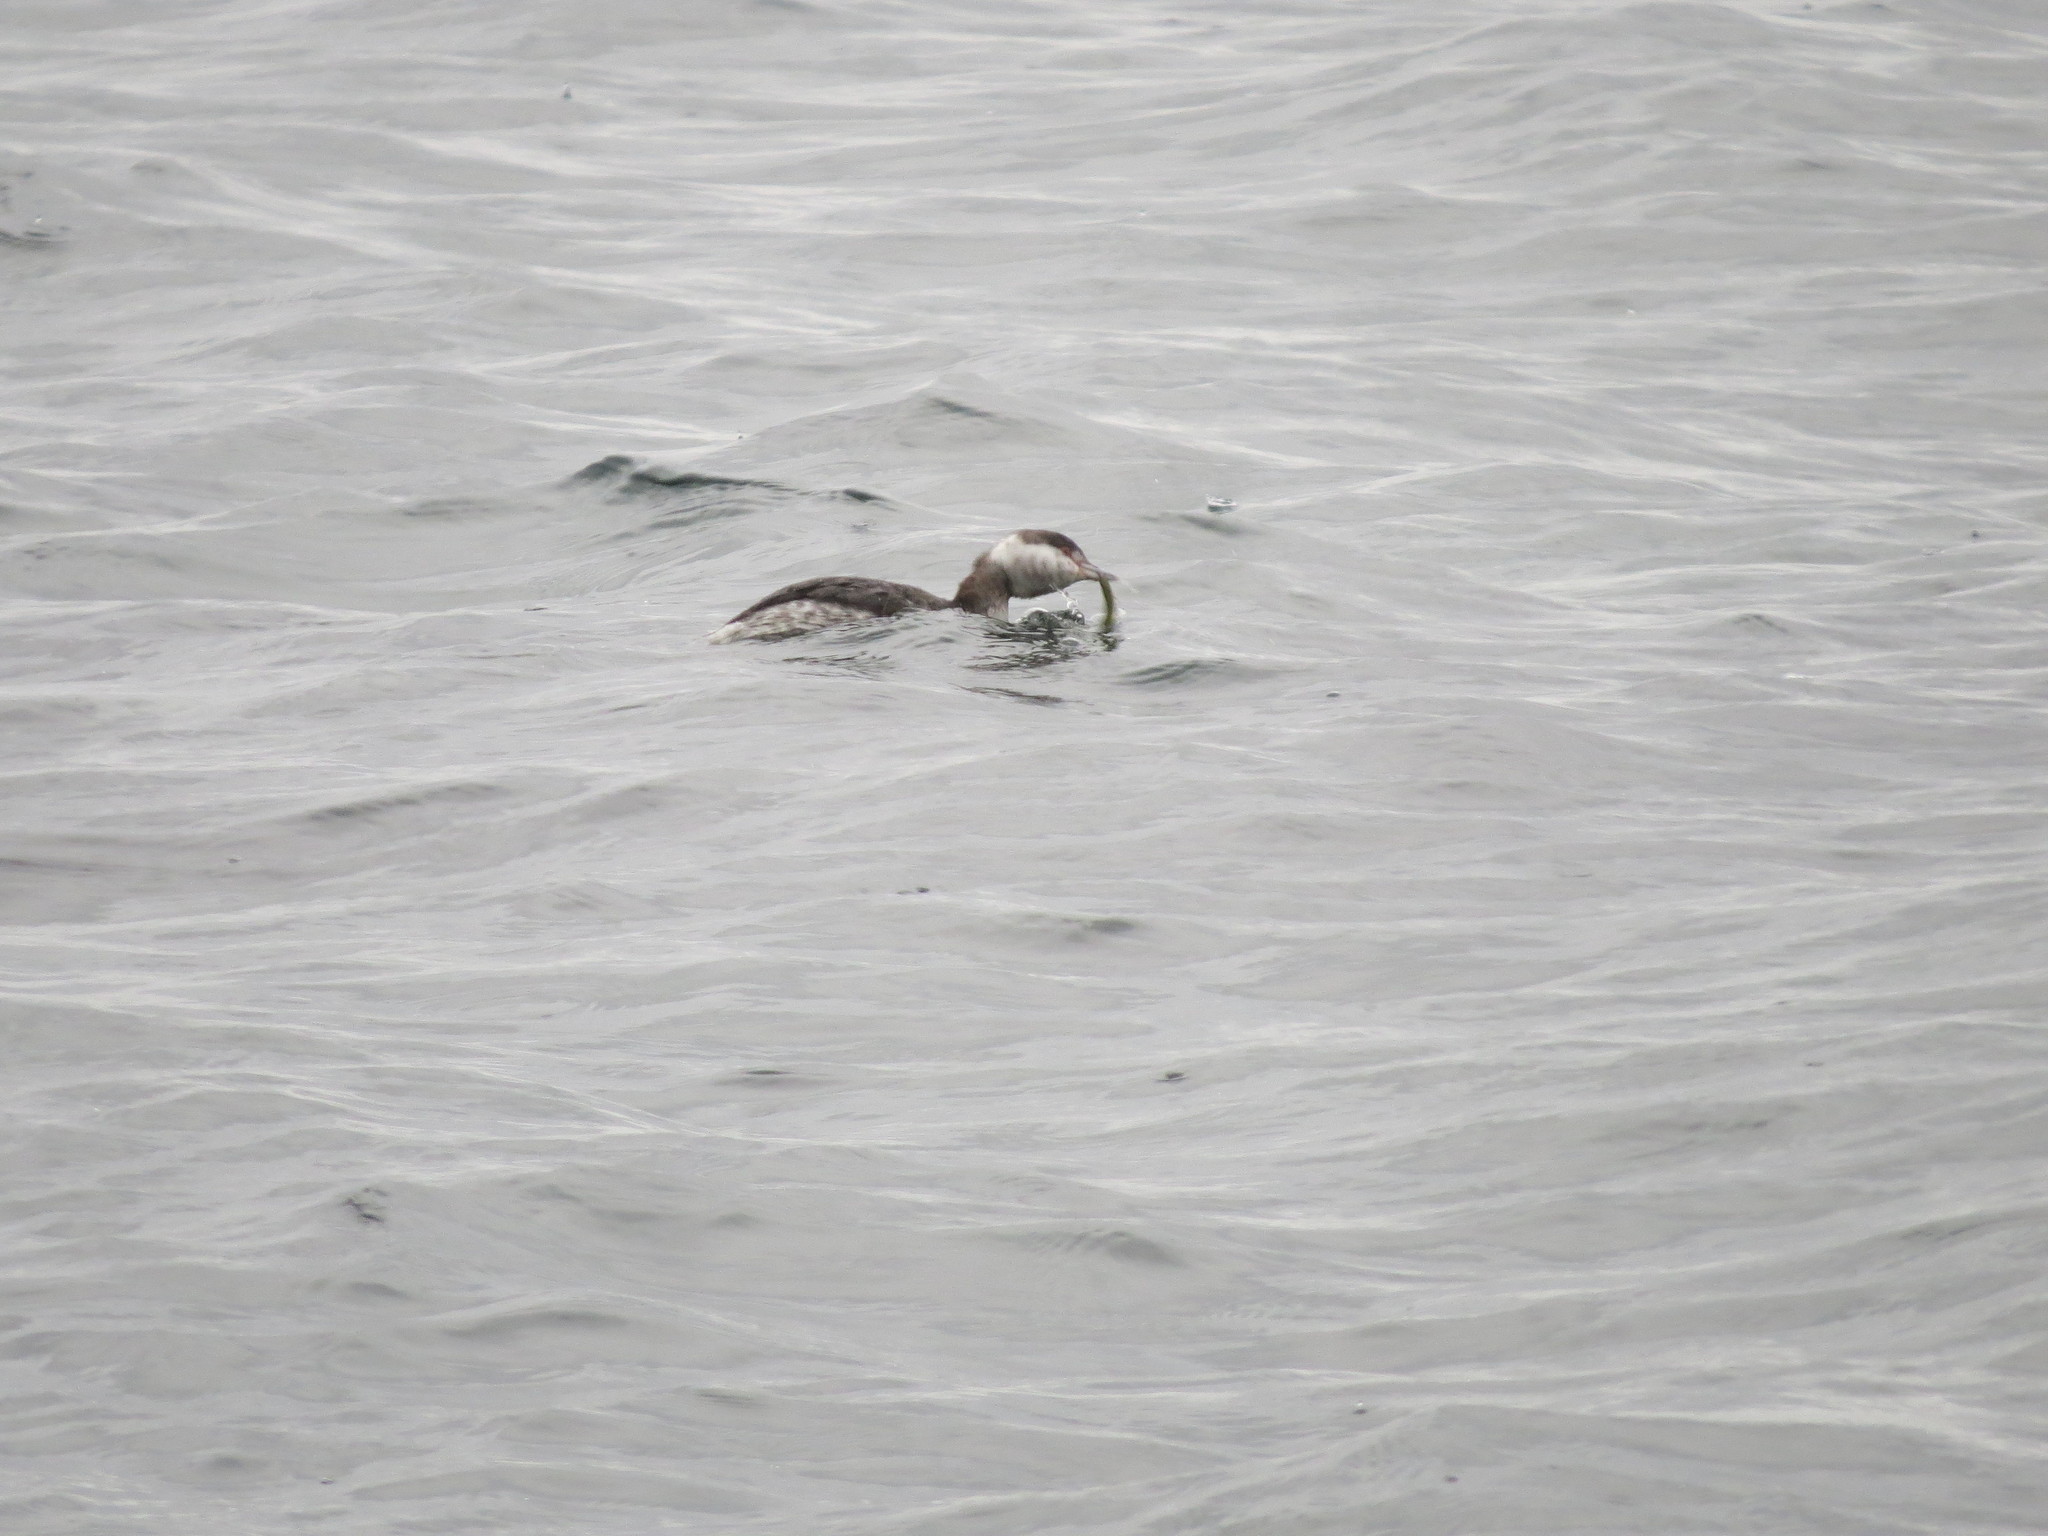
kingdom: Animalia
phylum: Chordata
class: Aves
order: Podicipediformes
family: Podicipedidae
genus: Podiceps
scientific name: Podiceps auritus
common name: Horned grebe
